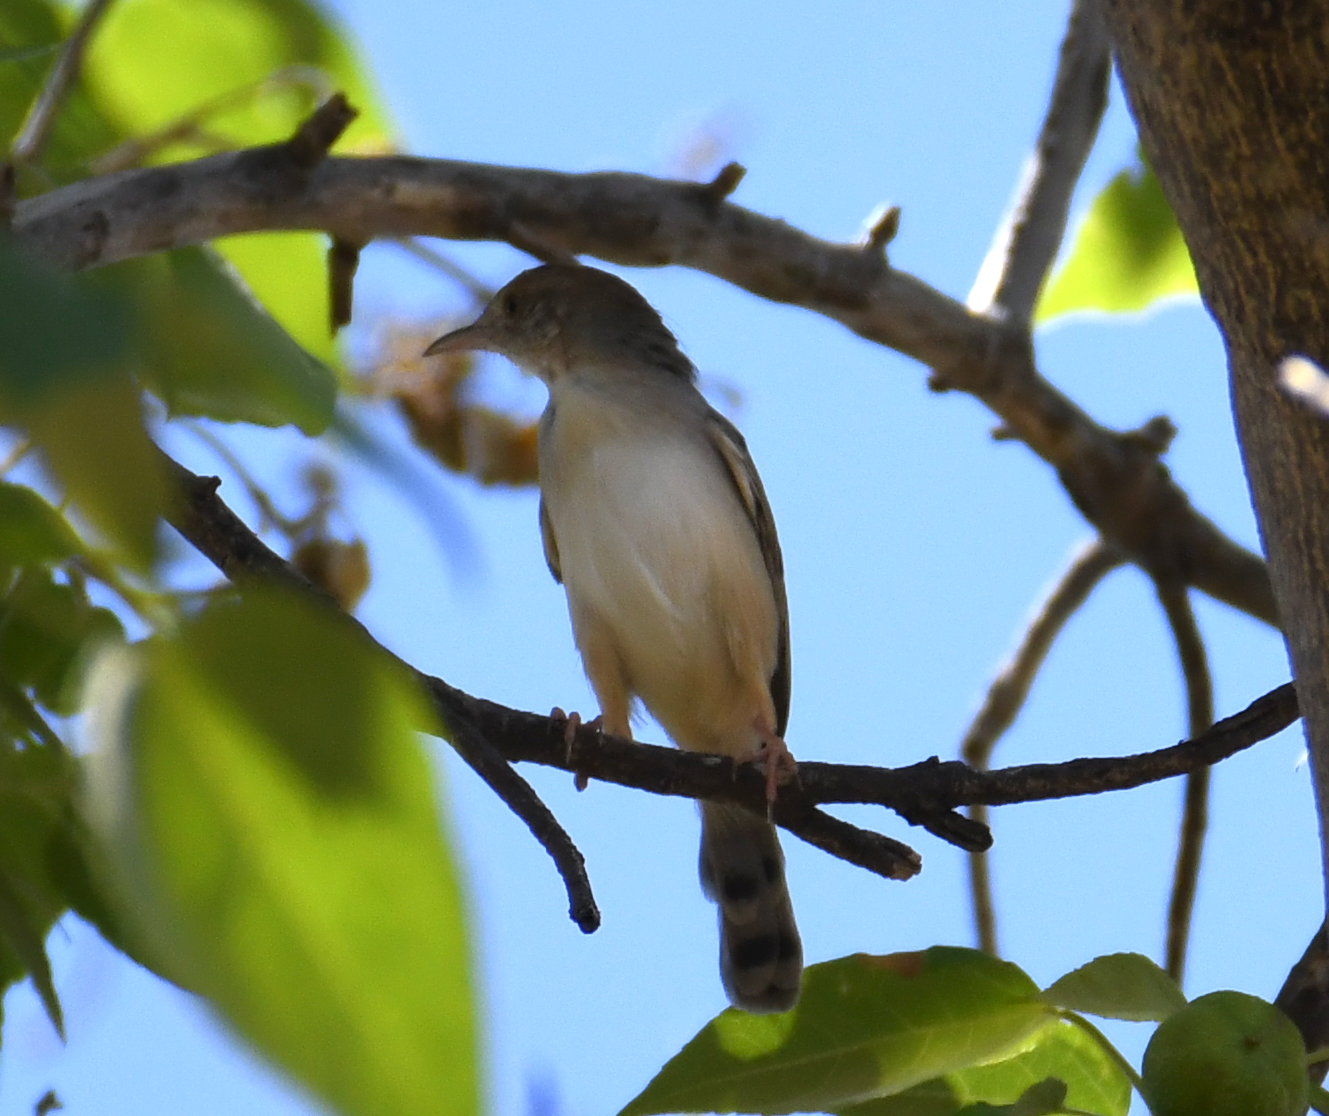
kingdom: Animalia
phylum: Chordata
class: Aves
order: Passeriformes
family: Cisticolidae
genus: Cisticola
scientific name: Cisticola chiniana
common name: Rattling cisticola
